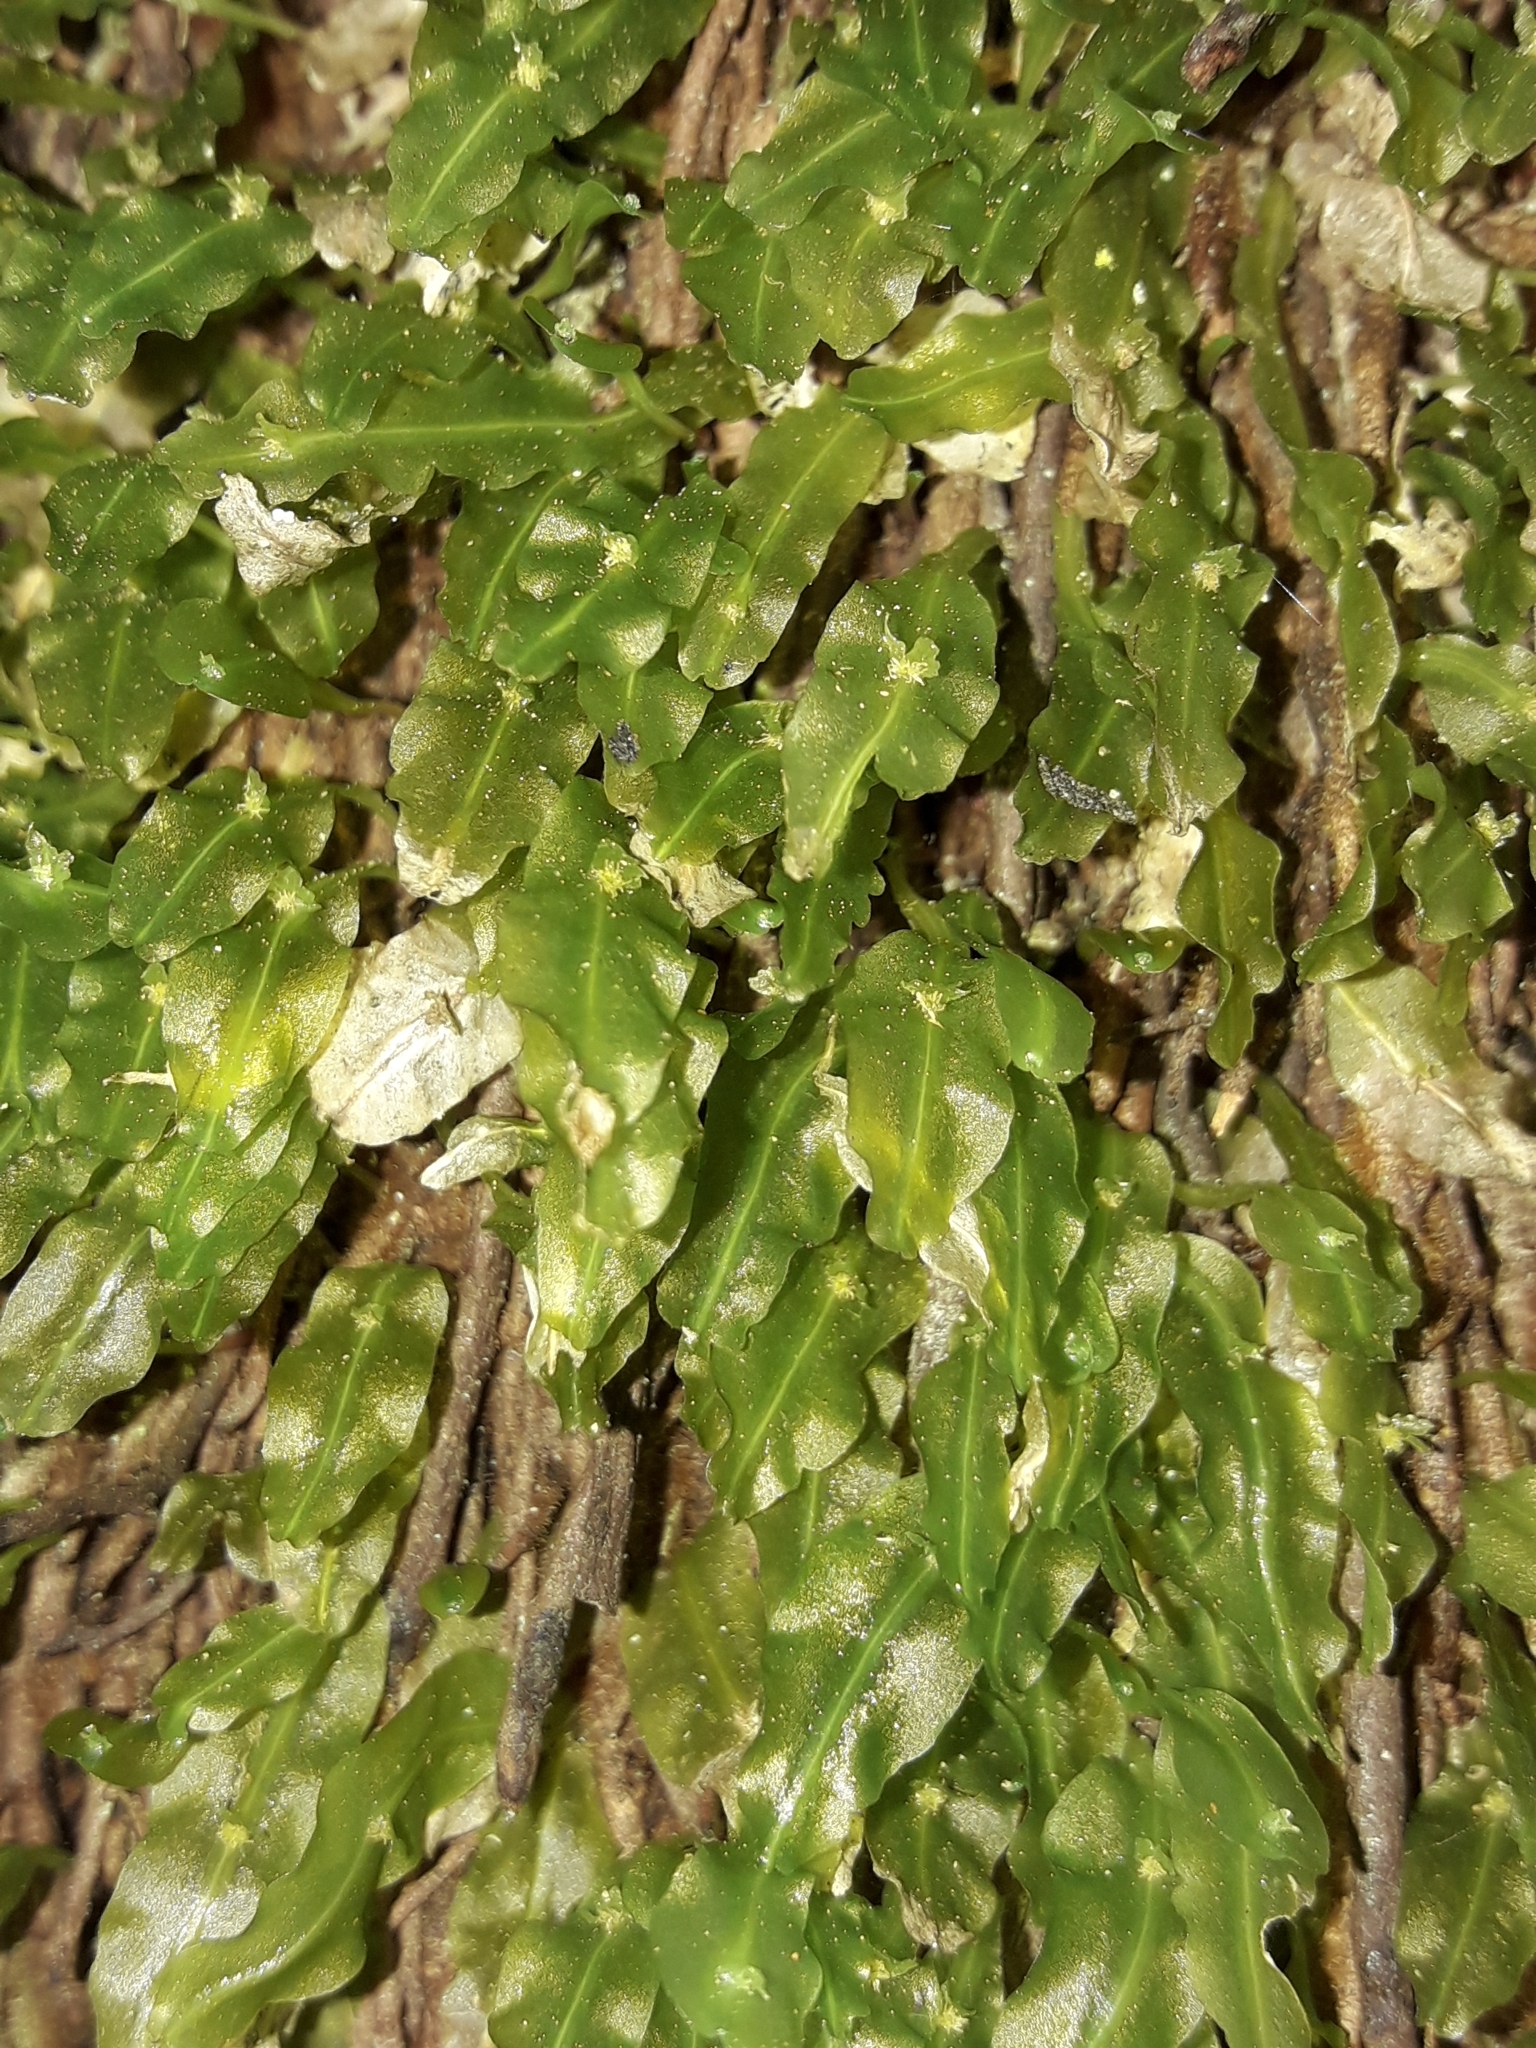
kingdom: Plantae
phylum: Marchantiophyta
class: Jungermanniopsida
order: Pallaviciniales
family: Pallaviciniaceae
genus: Symphyogyna
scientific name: Symphyogyna subsimplex
